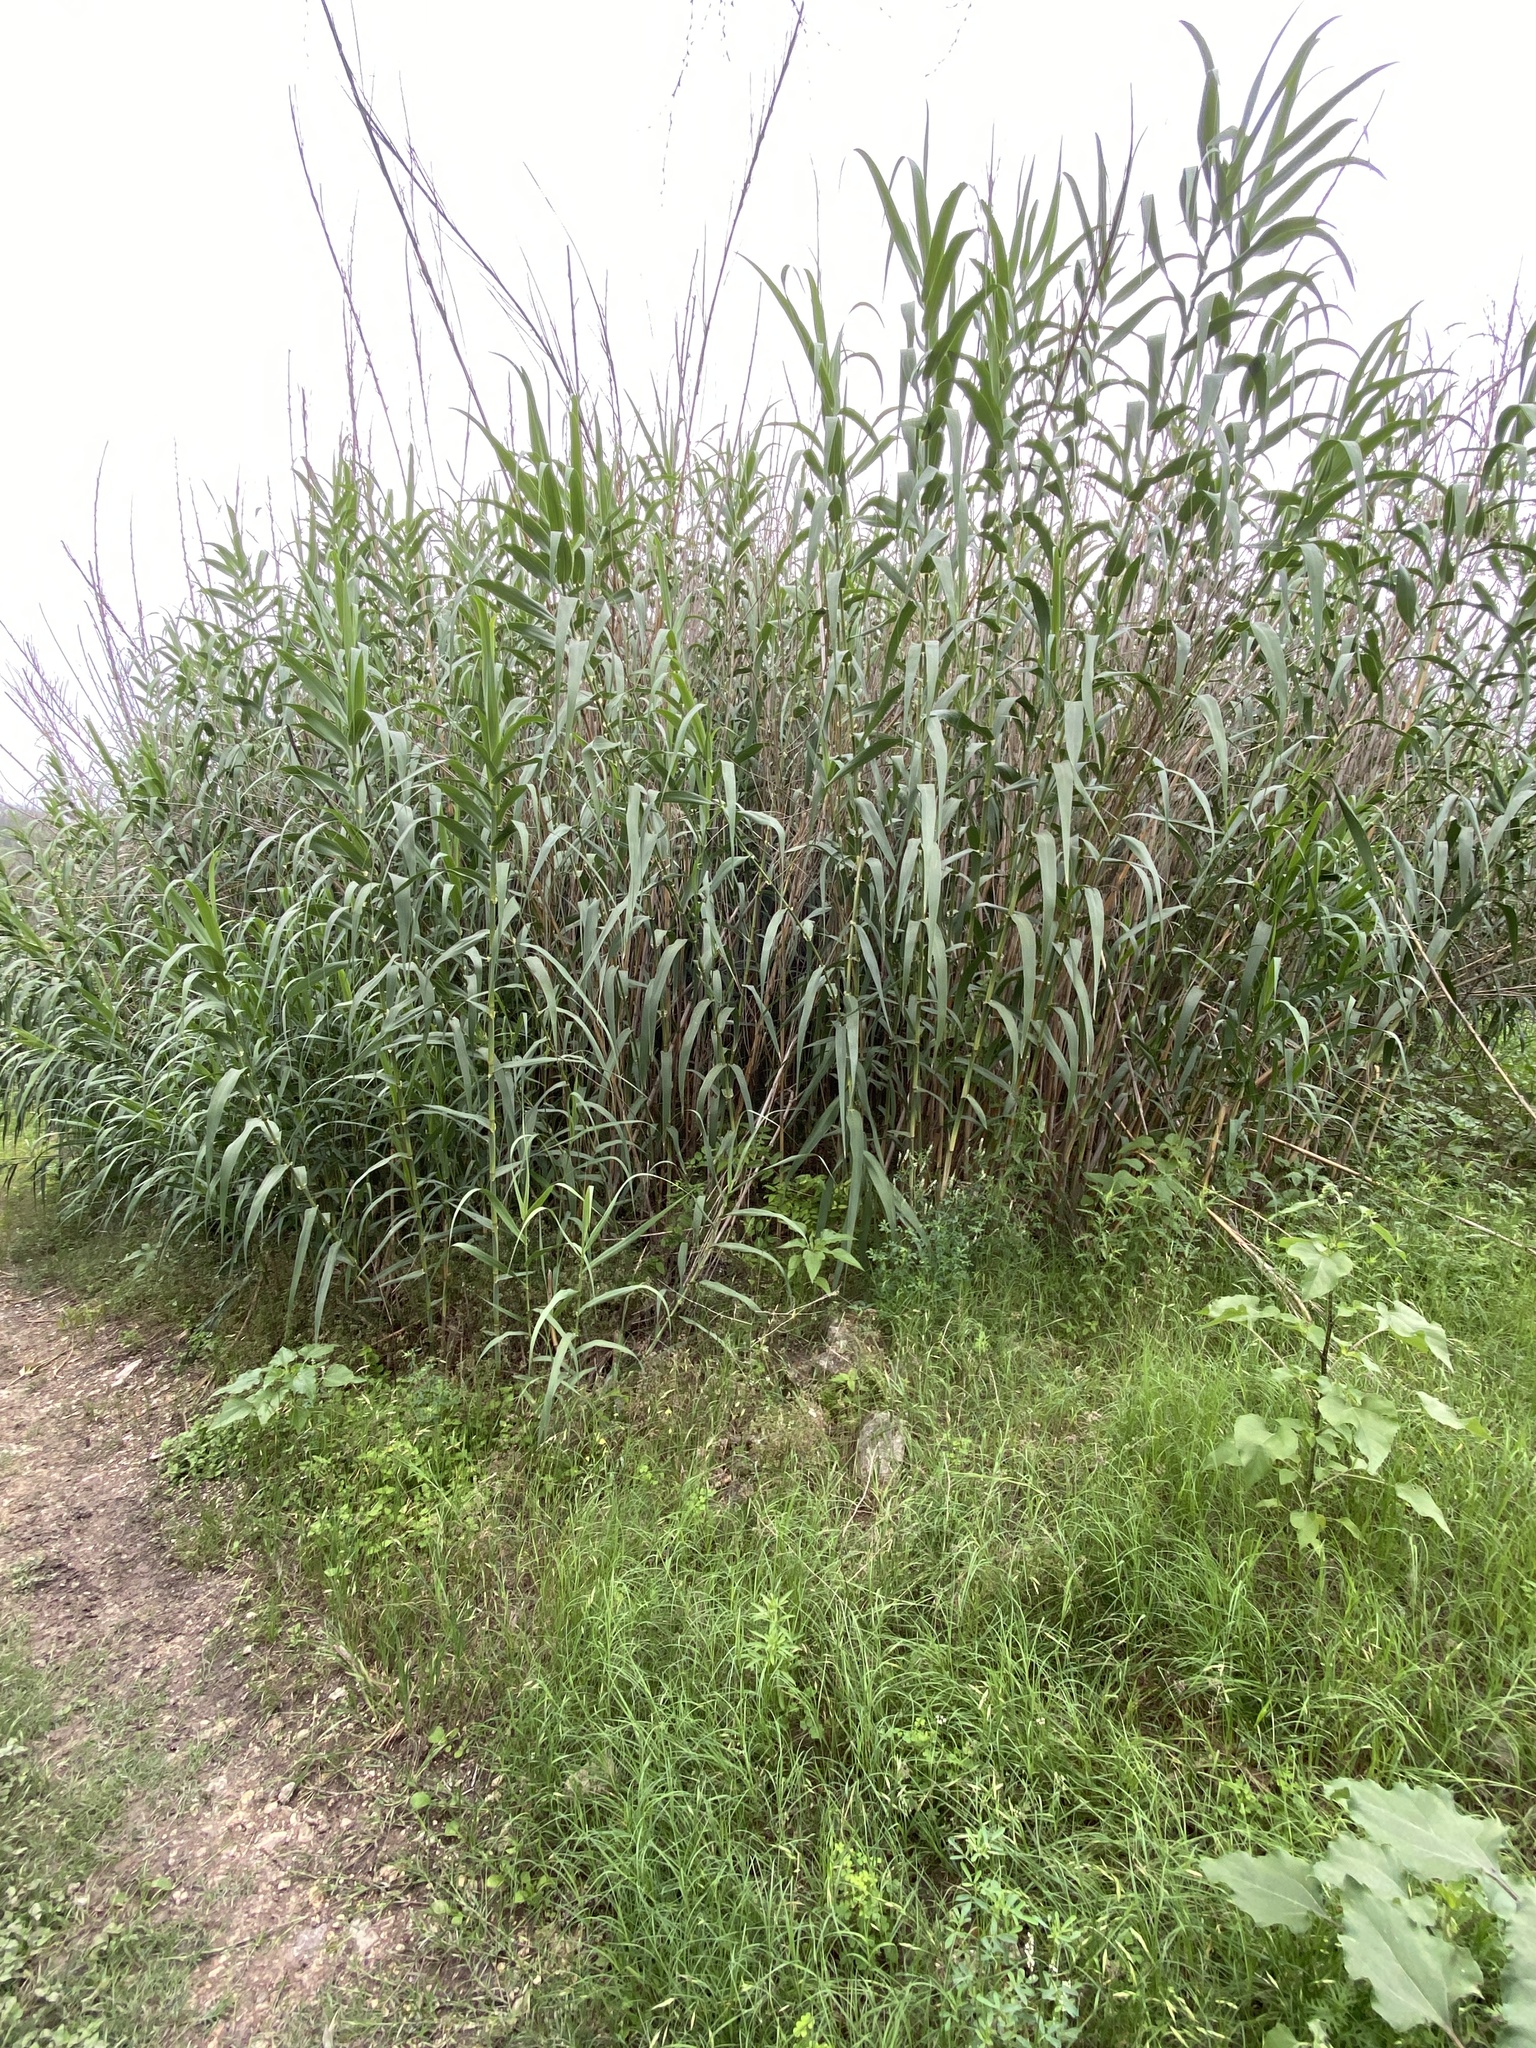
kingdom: Plantae
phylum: Tracheophyta
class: Liliopsida
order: Poales
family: Poaceae
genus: Arundo
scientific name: Arundo donax
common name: Giant reed
